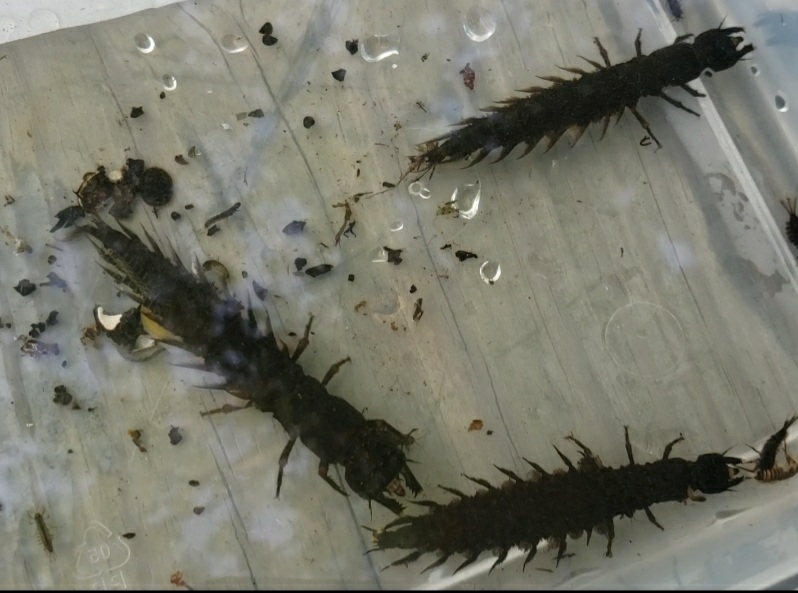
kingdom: Animalia
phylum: Arthropoda
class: Insecta
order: Megaloptera
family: Corydalidae
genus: Corydalus
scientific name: Corydalus cornutus
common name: Dobsonfly
